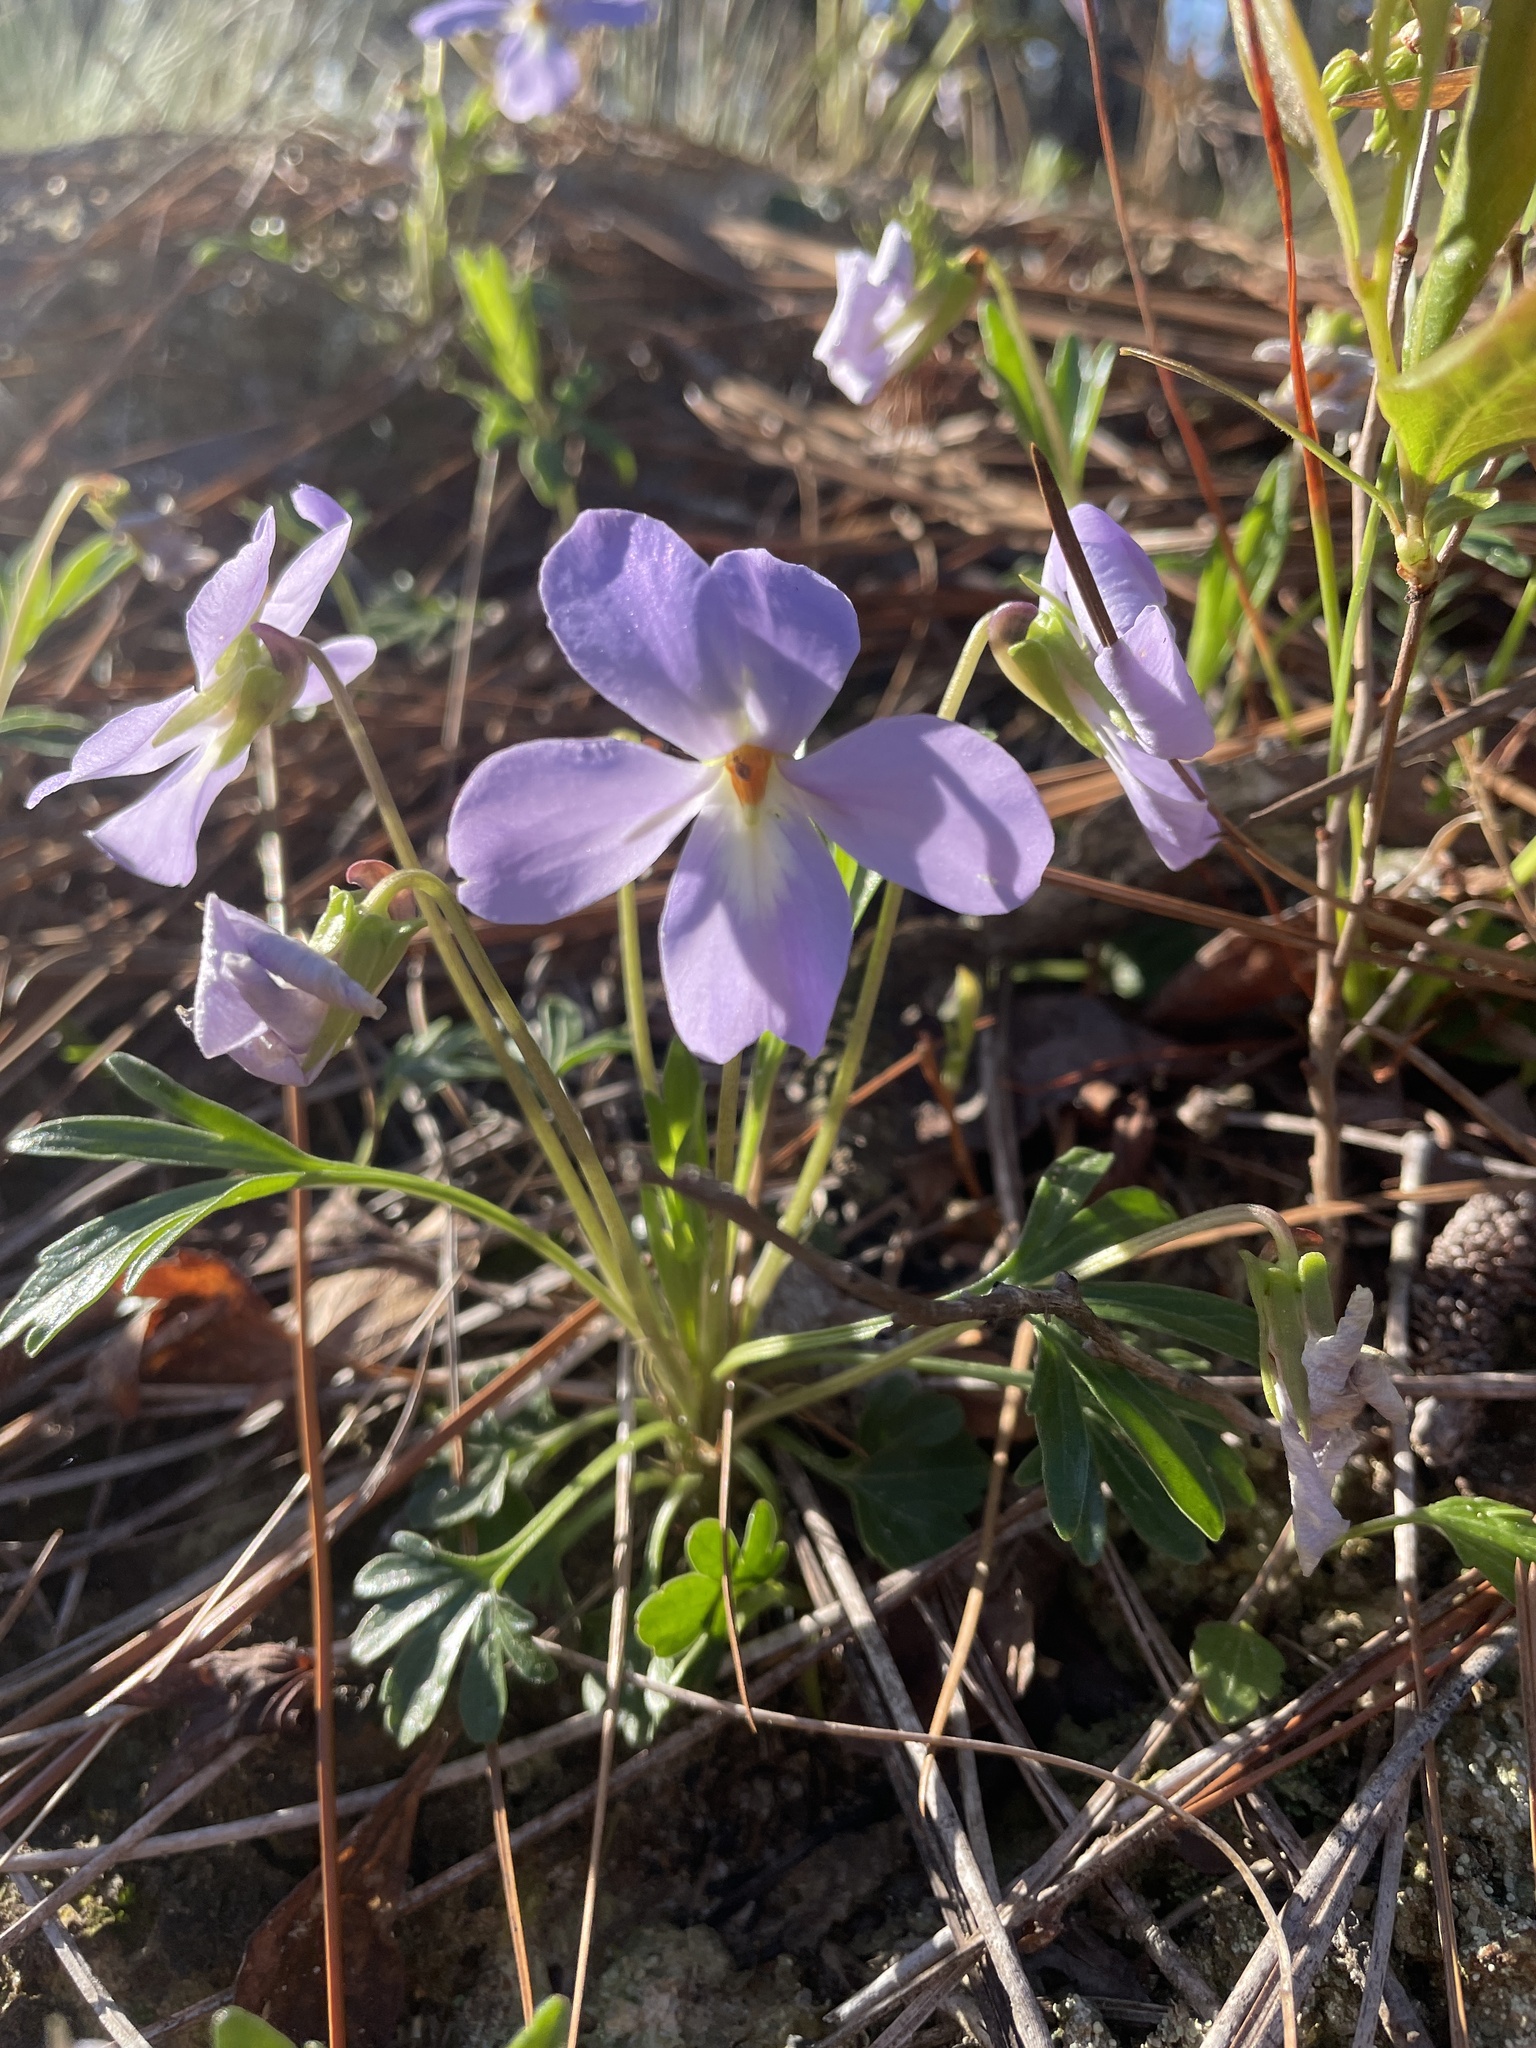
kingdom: Plantae
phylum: Tracheophyta
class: Magnoliopsida
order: Malpighiales
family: Violaceae
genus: Viola
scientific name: Viola pedata
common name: Pansy violet
